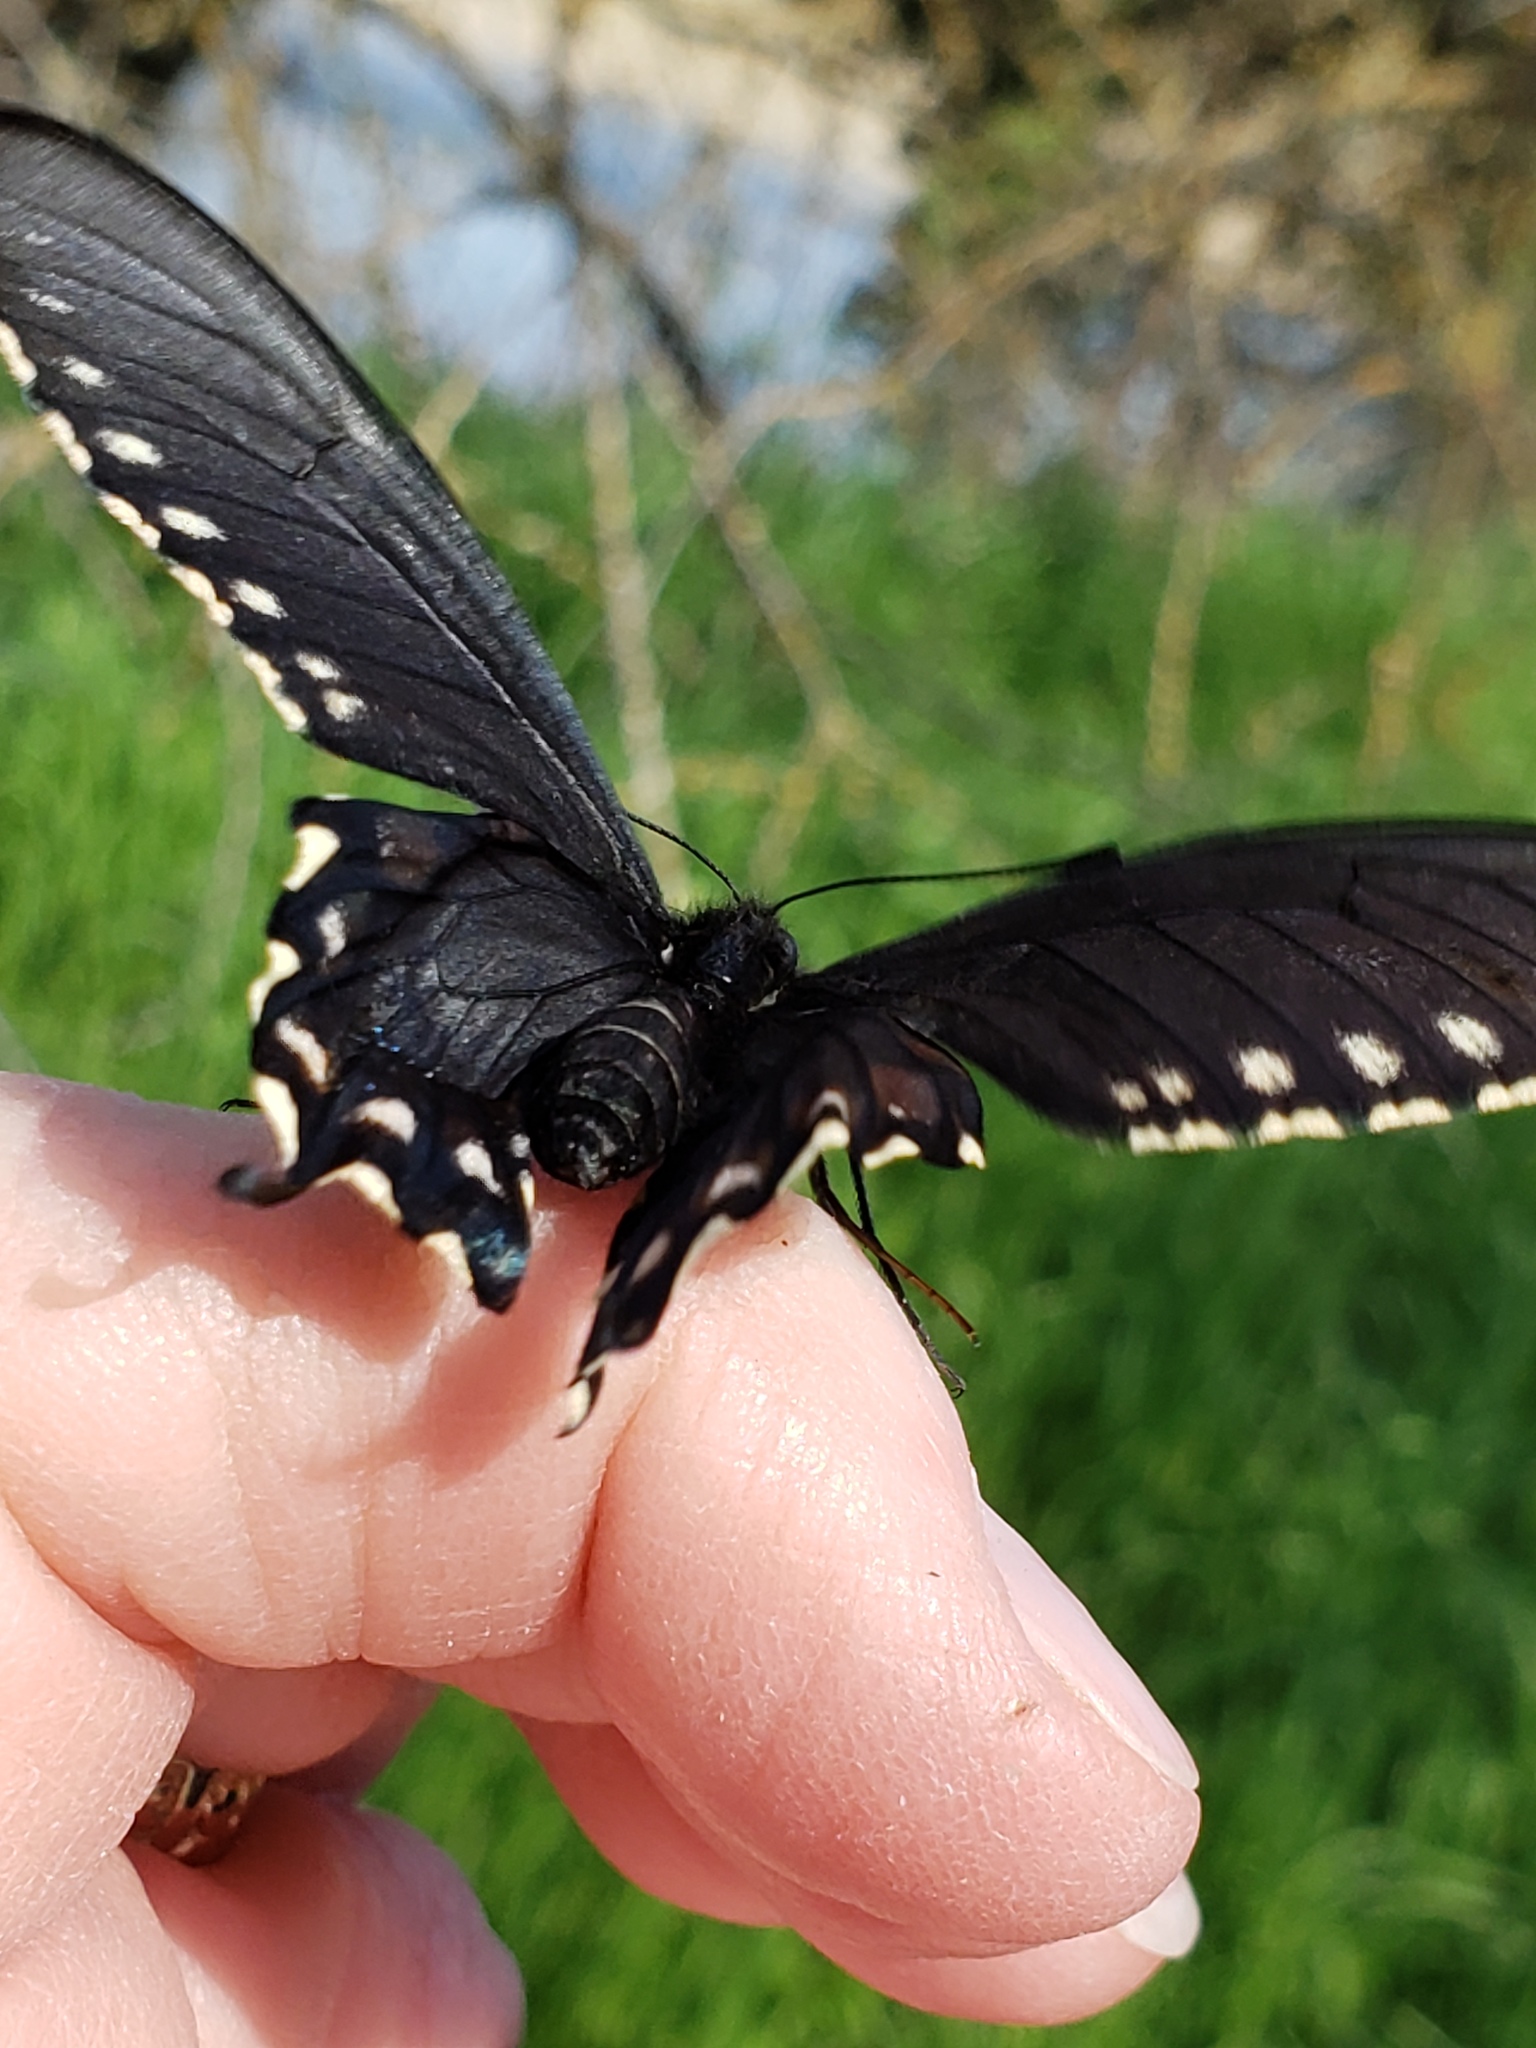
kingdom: Animalia
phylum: Arthropoda
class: Insecta
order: Lepidoptera
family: Papilionidae
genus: Battus
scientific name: Battus philenor
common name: Pipevine swallowtail
